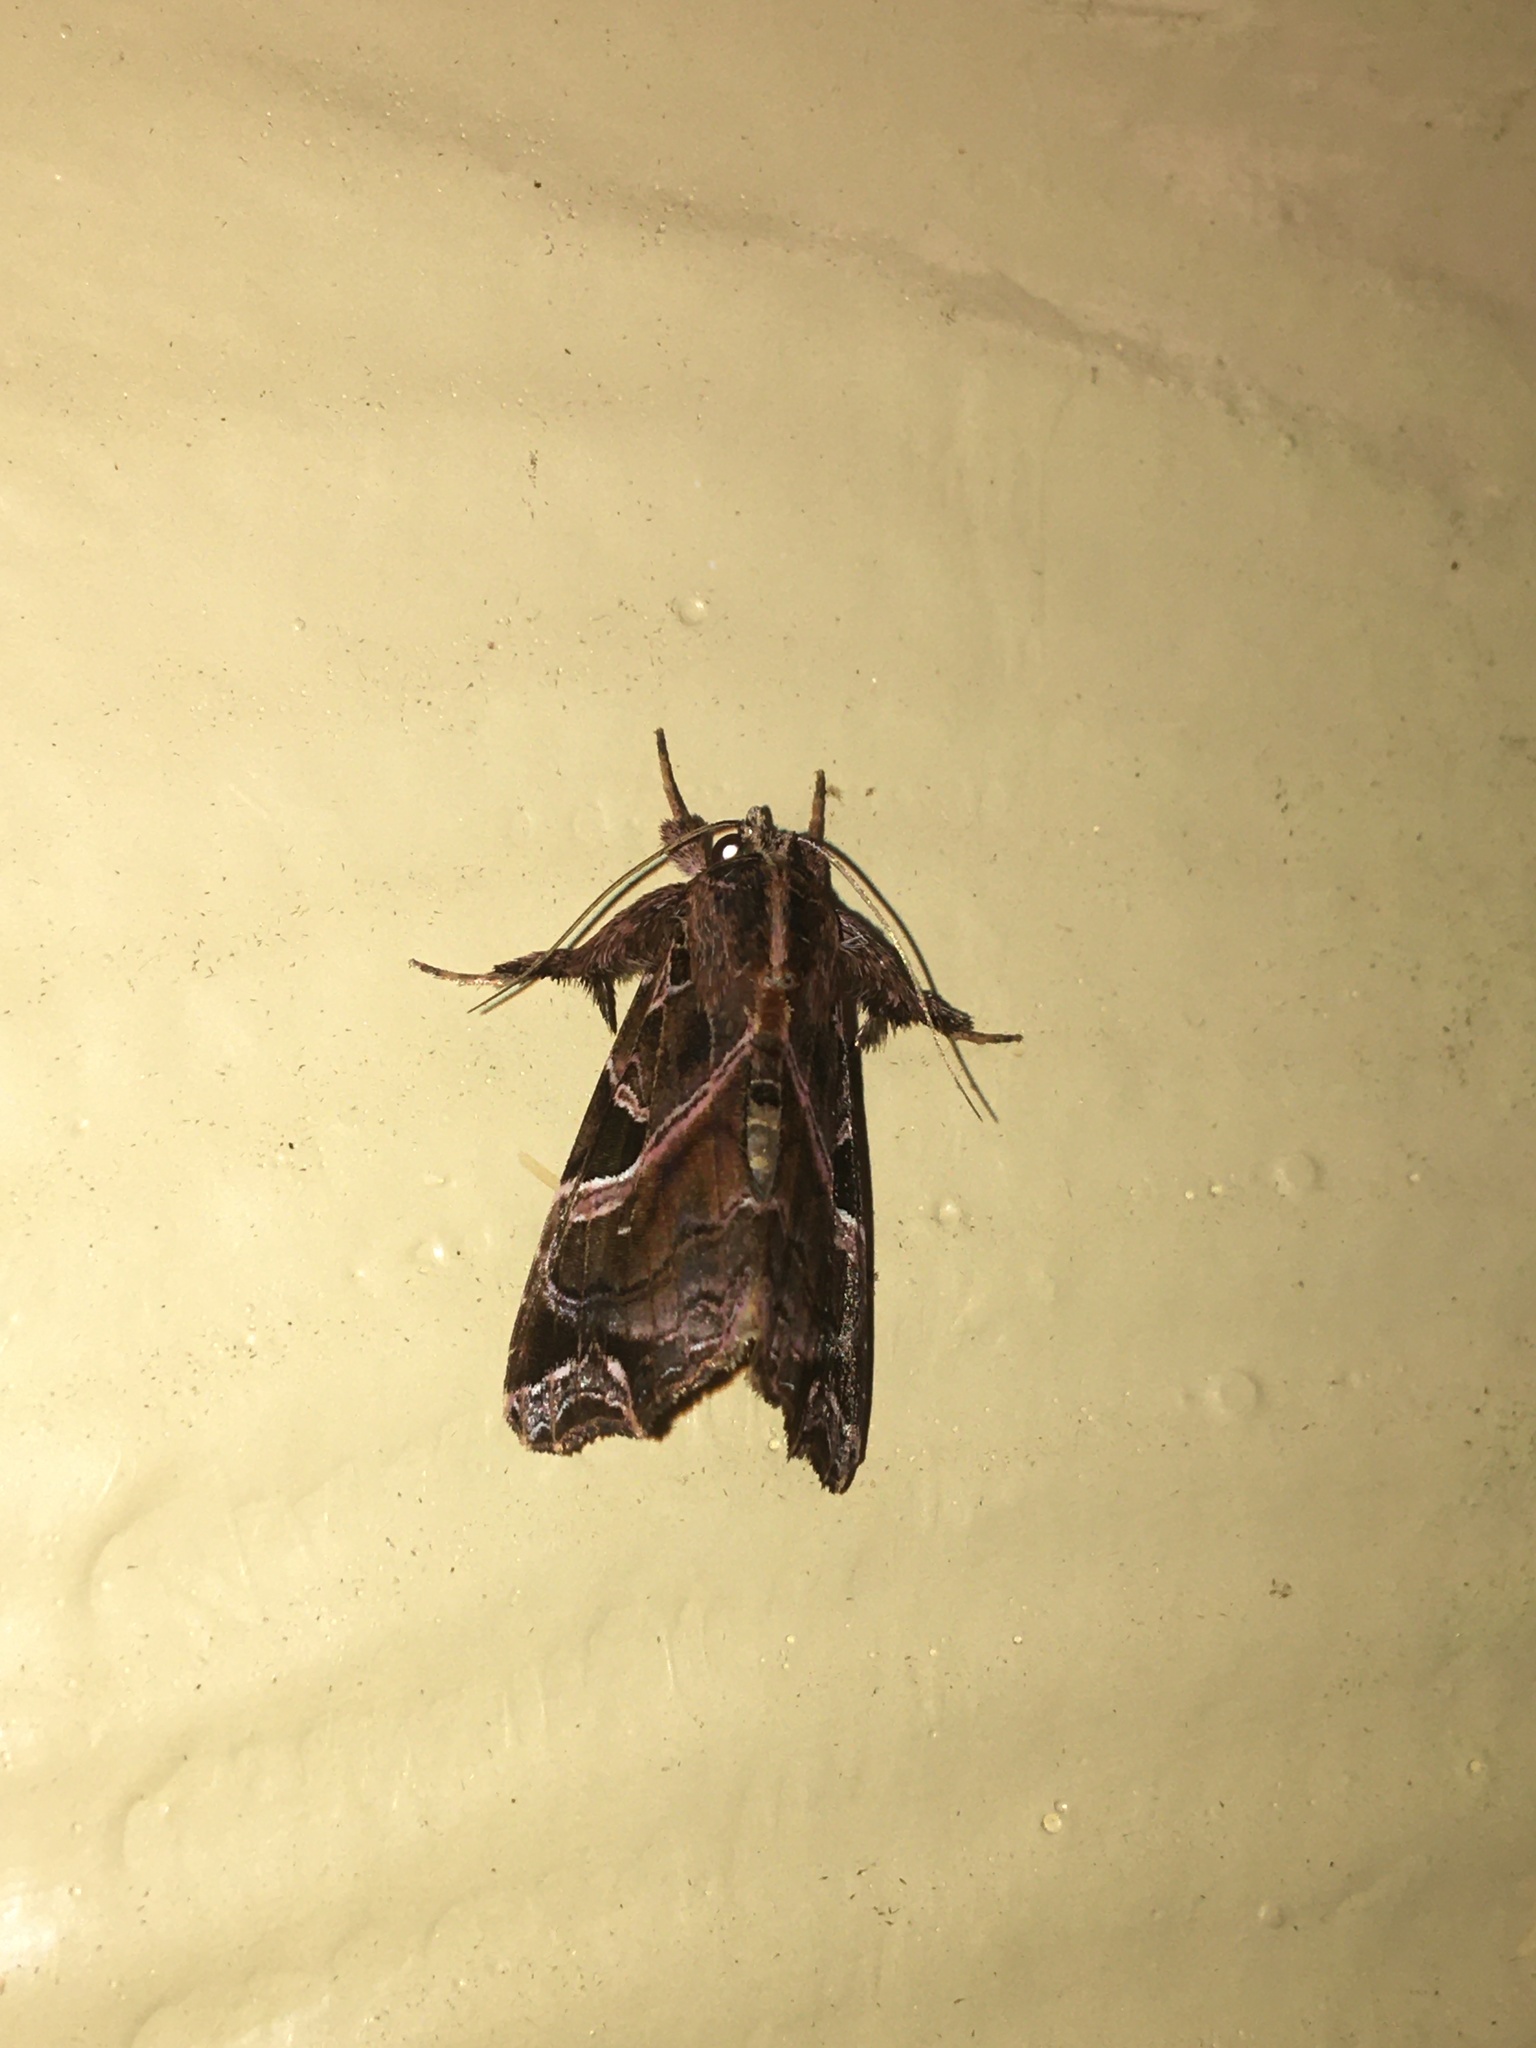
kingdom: Animalia
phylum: Arthropoda
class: Insecta
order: Lepidoptera
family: Noctuidae
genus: Callopistria
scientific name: Callopistria floridensis
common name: Florida fern moth
